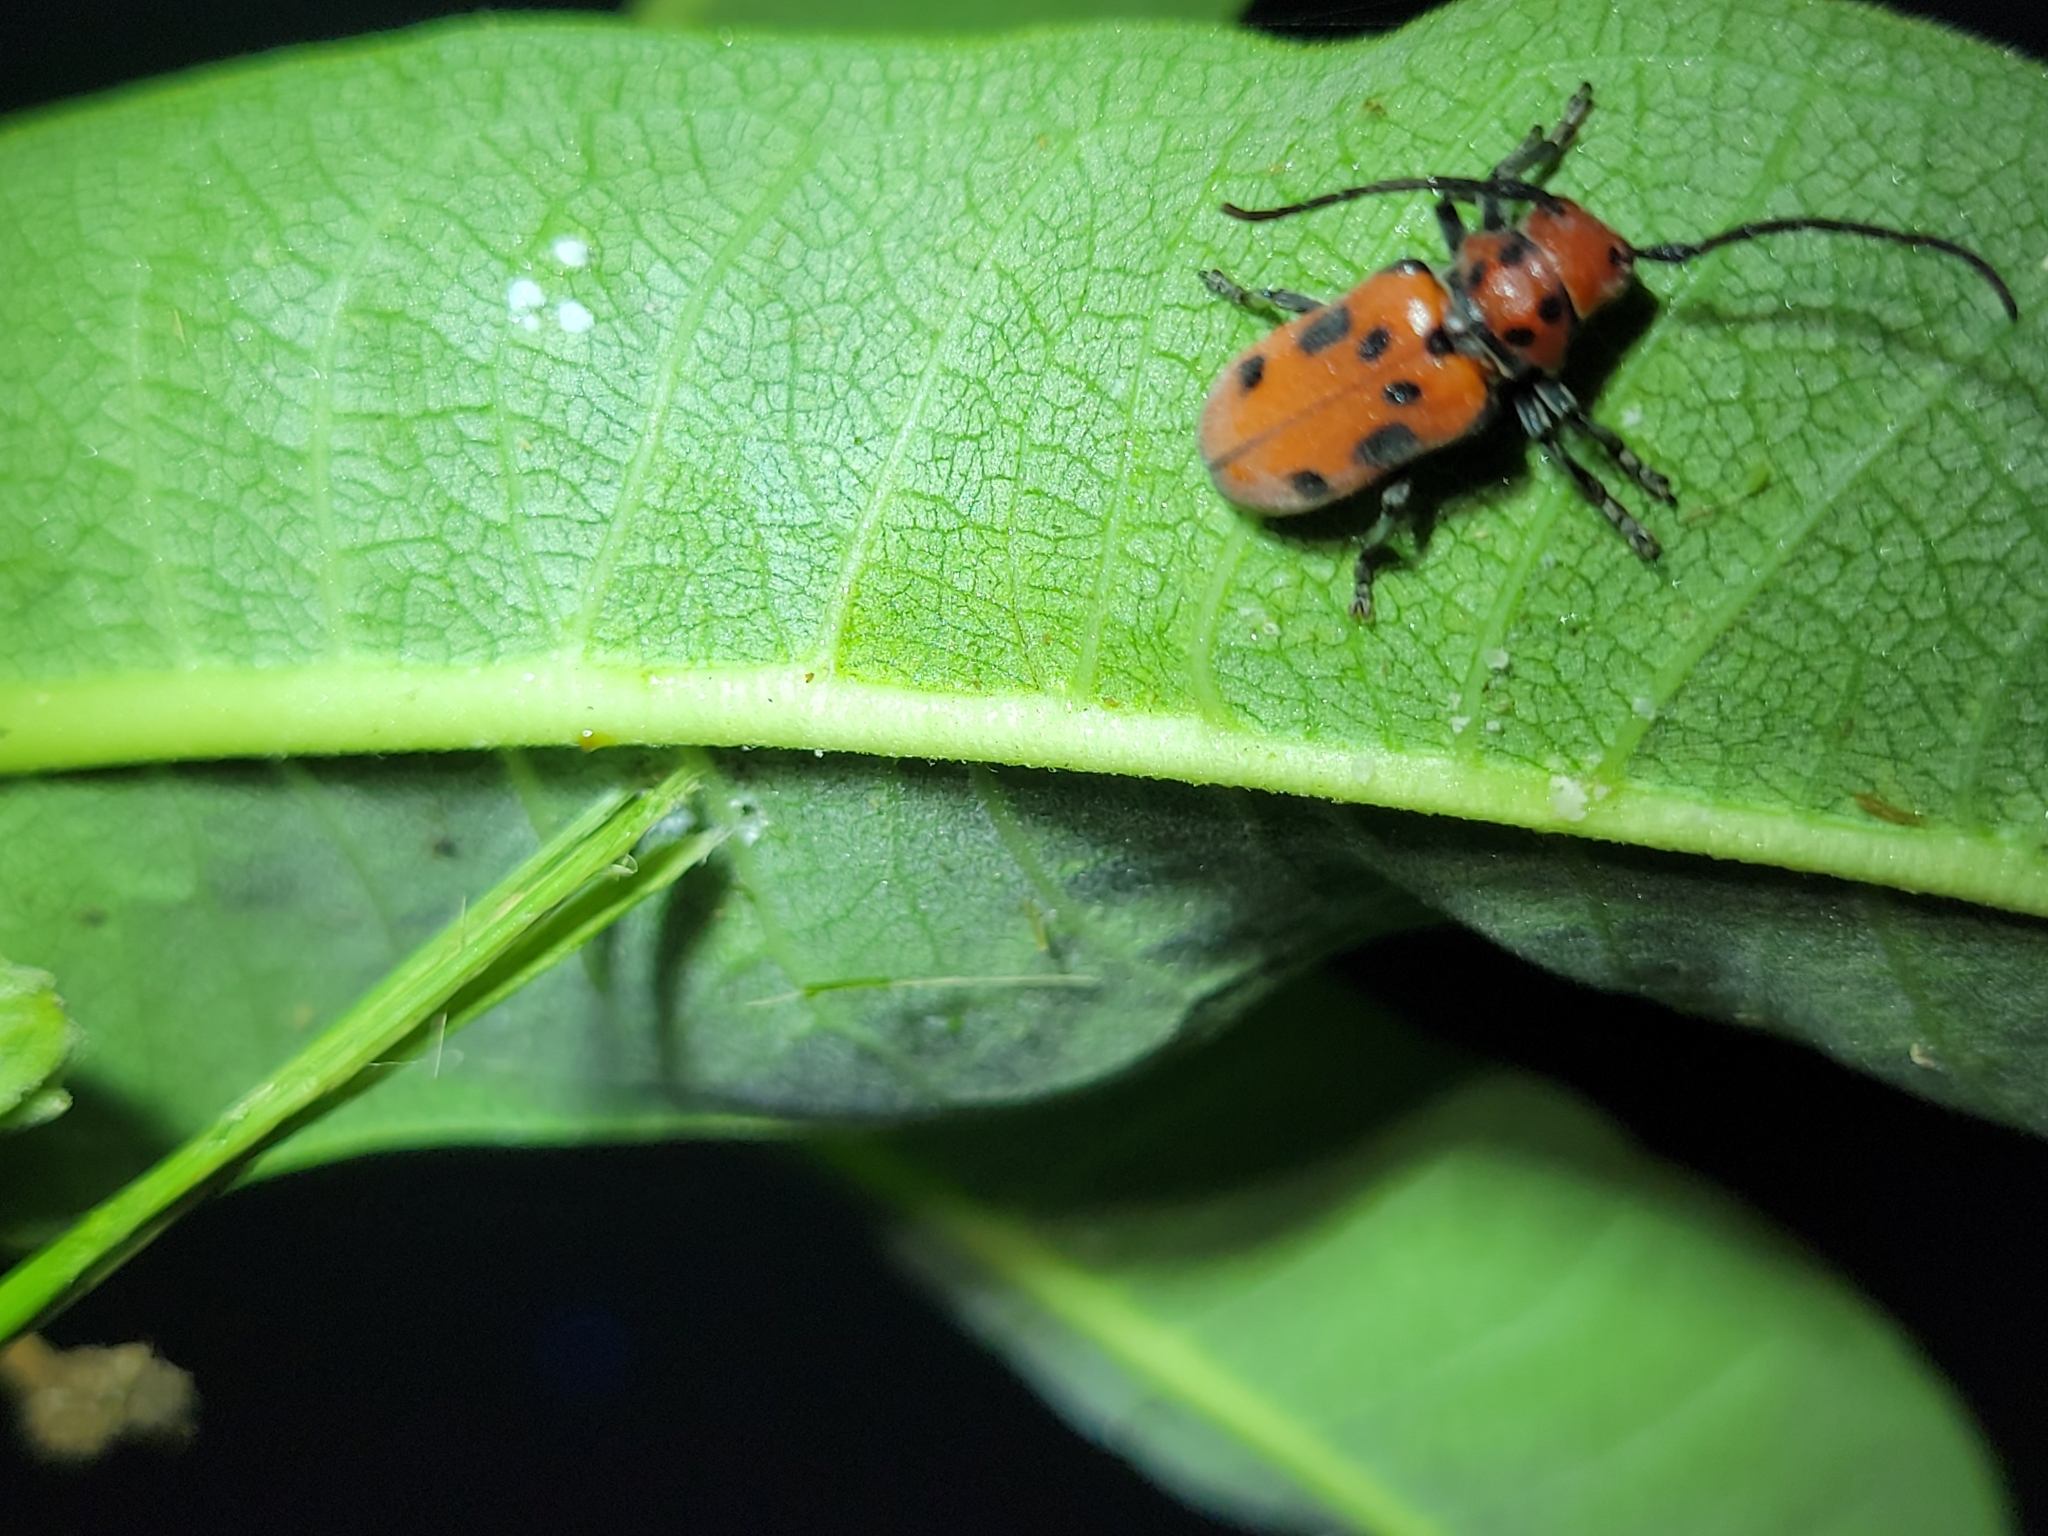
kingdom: Animalia
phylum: Arthropoda
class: Insecta
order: Coleoptera
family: Cerambycidae
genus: Tetraopes
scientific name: Tetraopes tetrophthalmus
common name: Red milkweed beetle
